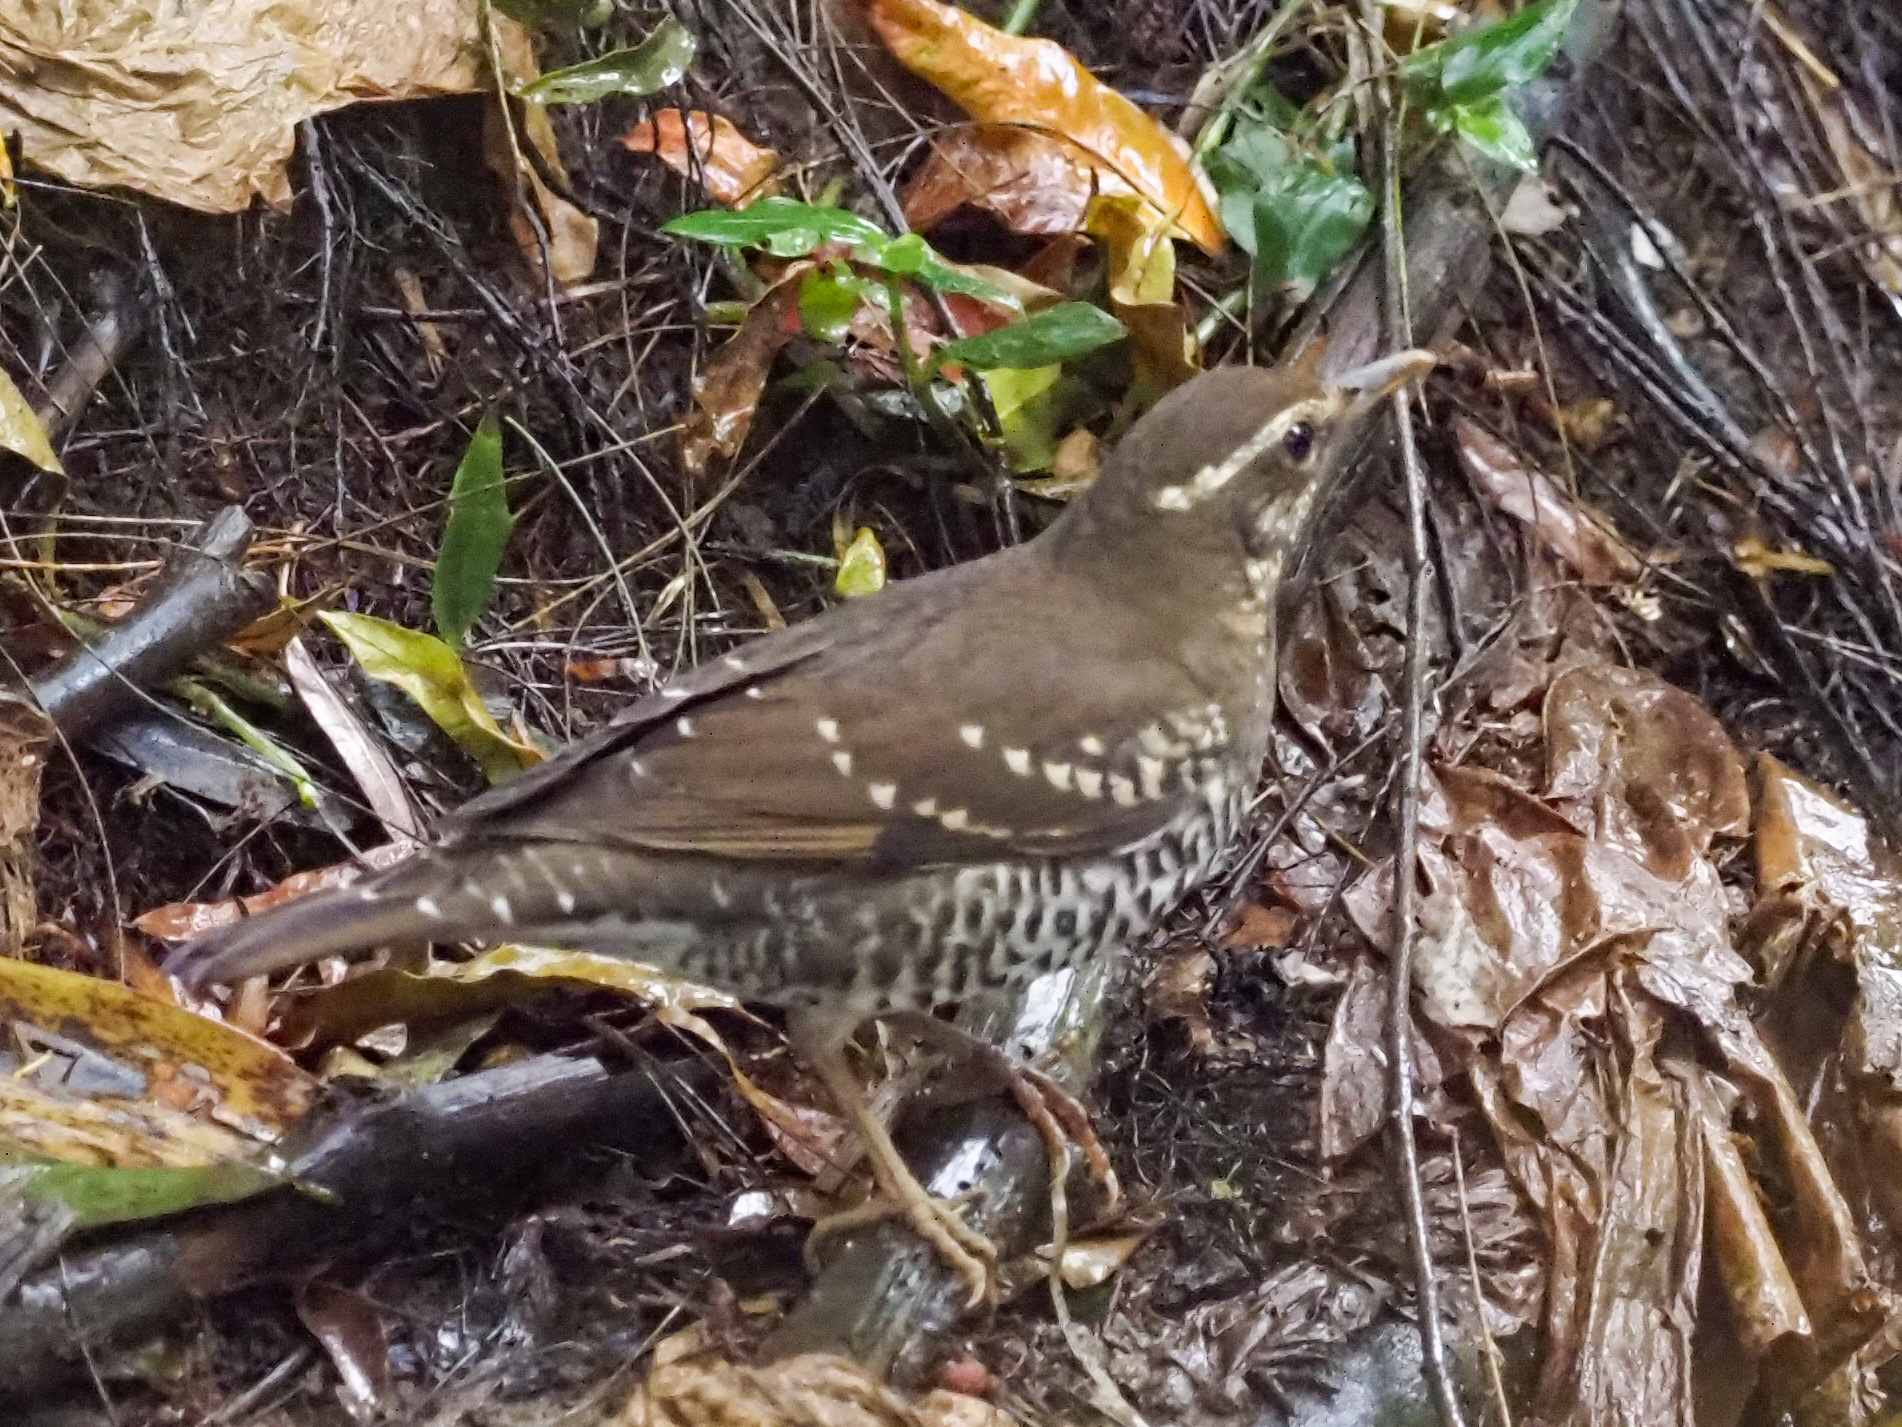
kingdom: Animalia
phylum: Chordata
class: Aves
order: Passeriformes
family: Turdidae
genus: Geokichla
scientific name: Geokichla wardii
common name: Pied thrush
